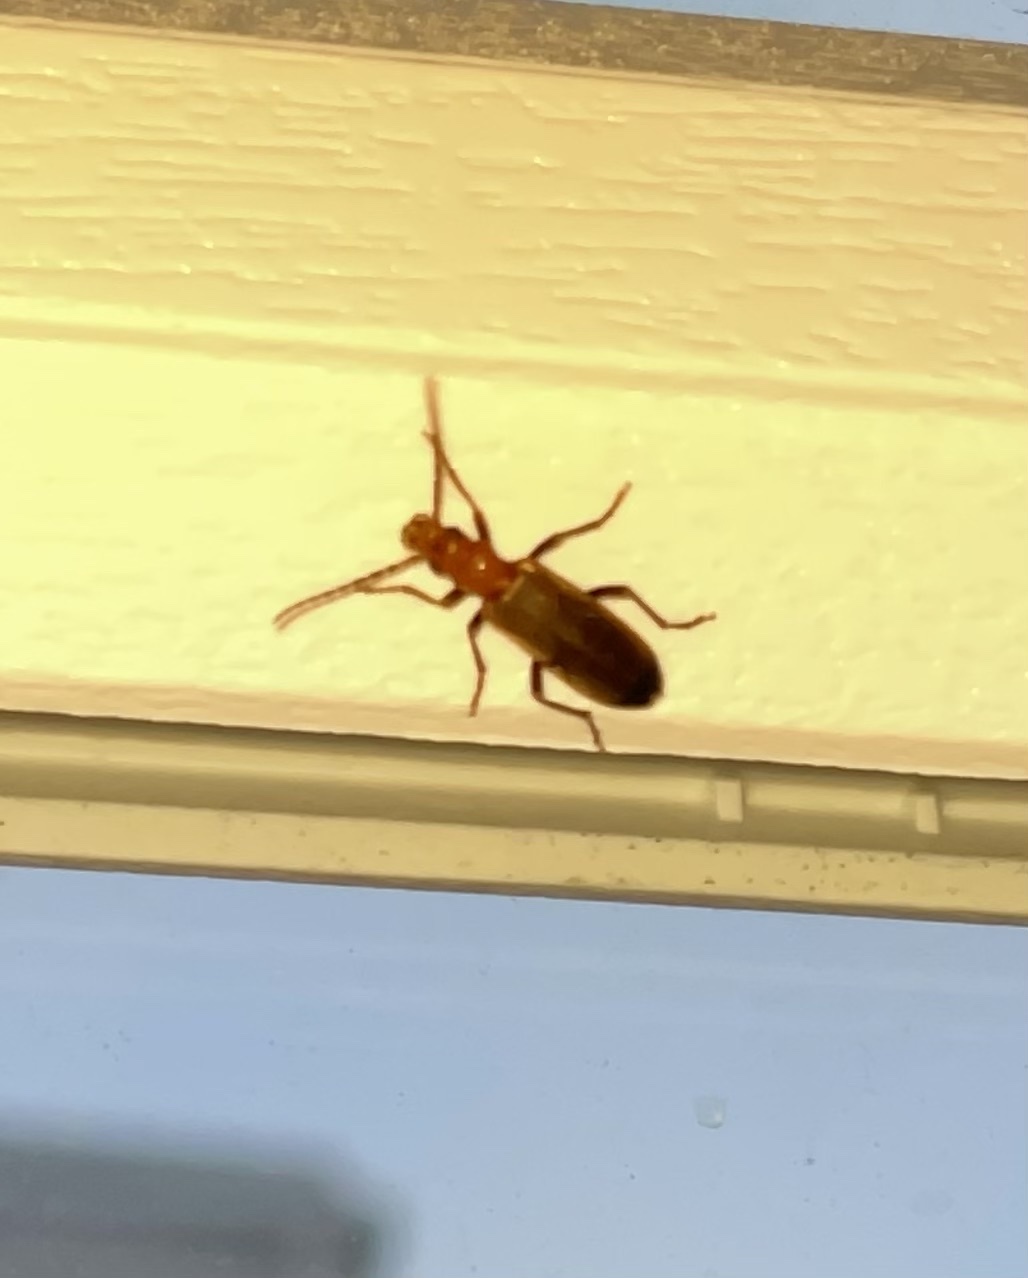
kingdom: Animalia
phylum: Arthropoda
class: Insecta
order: Coleoptera
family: Oedemeridae
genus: Nacerdes
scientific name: Nacerdes melanura
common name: Wharf borer
